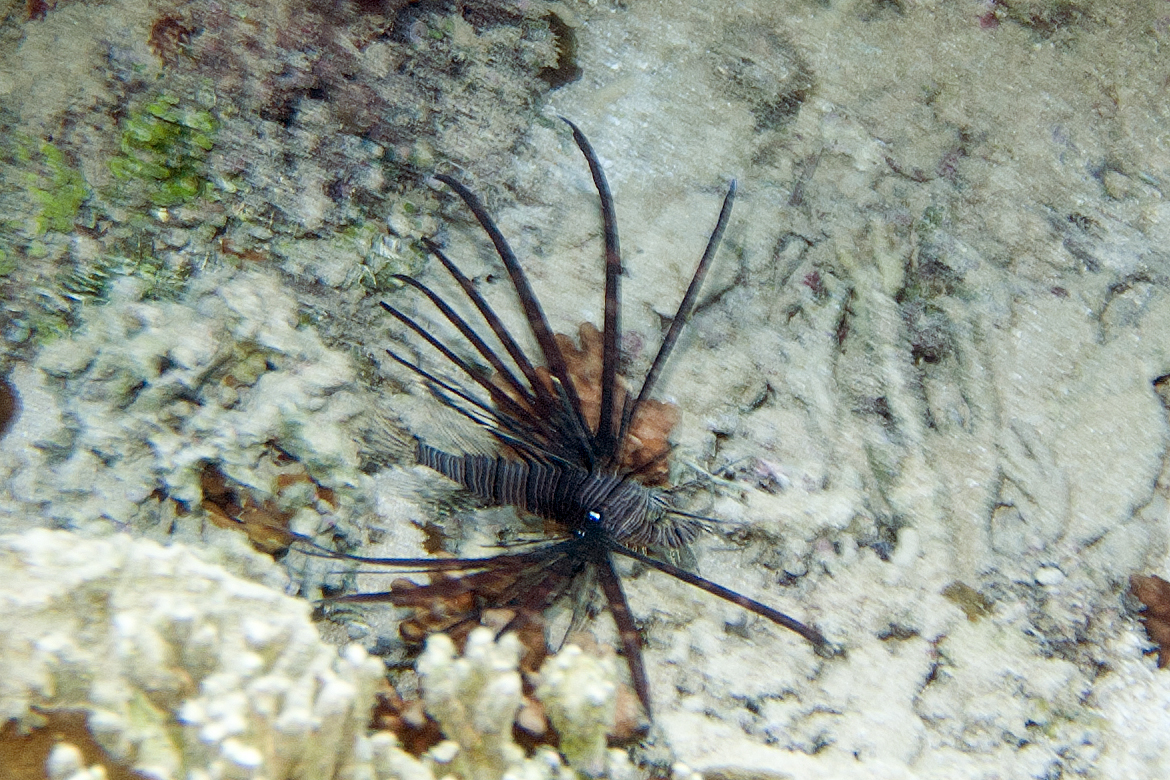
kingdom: Animalia
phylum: Chordata
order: Scorpaeniformes
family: Scorpaenidae
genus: Pterois
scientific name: Pterois volitans
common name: Lionfish
